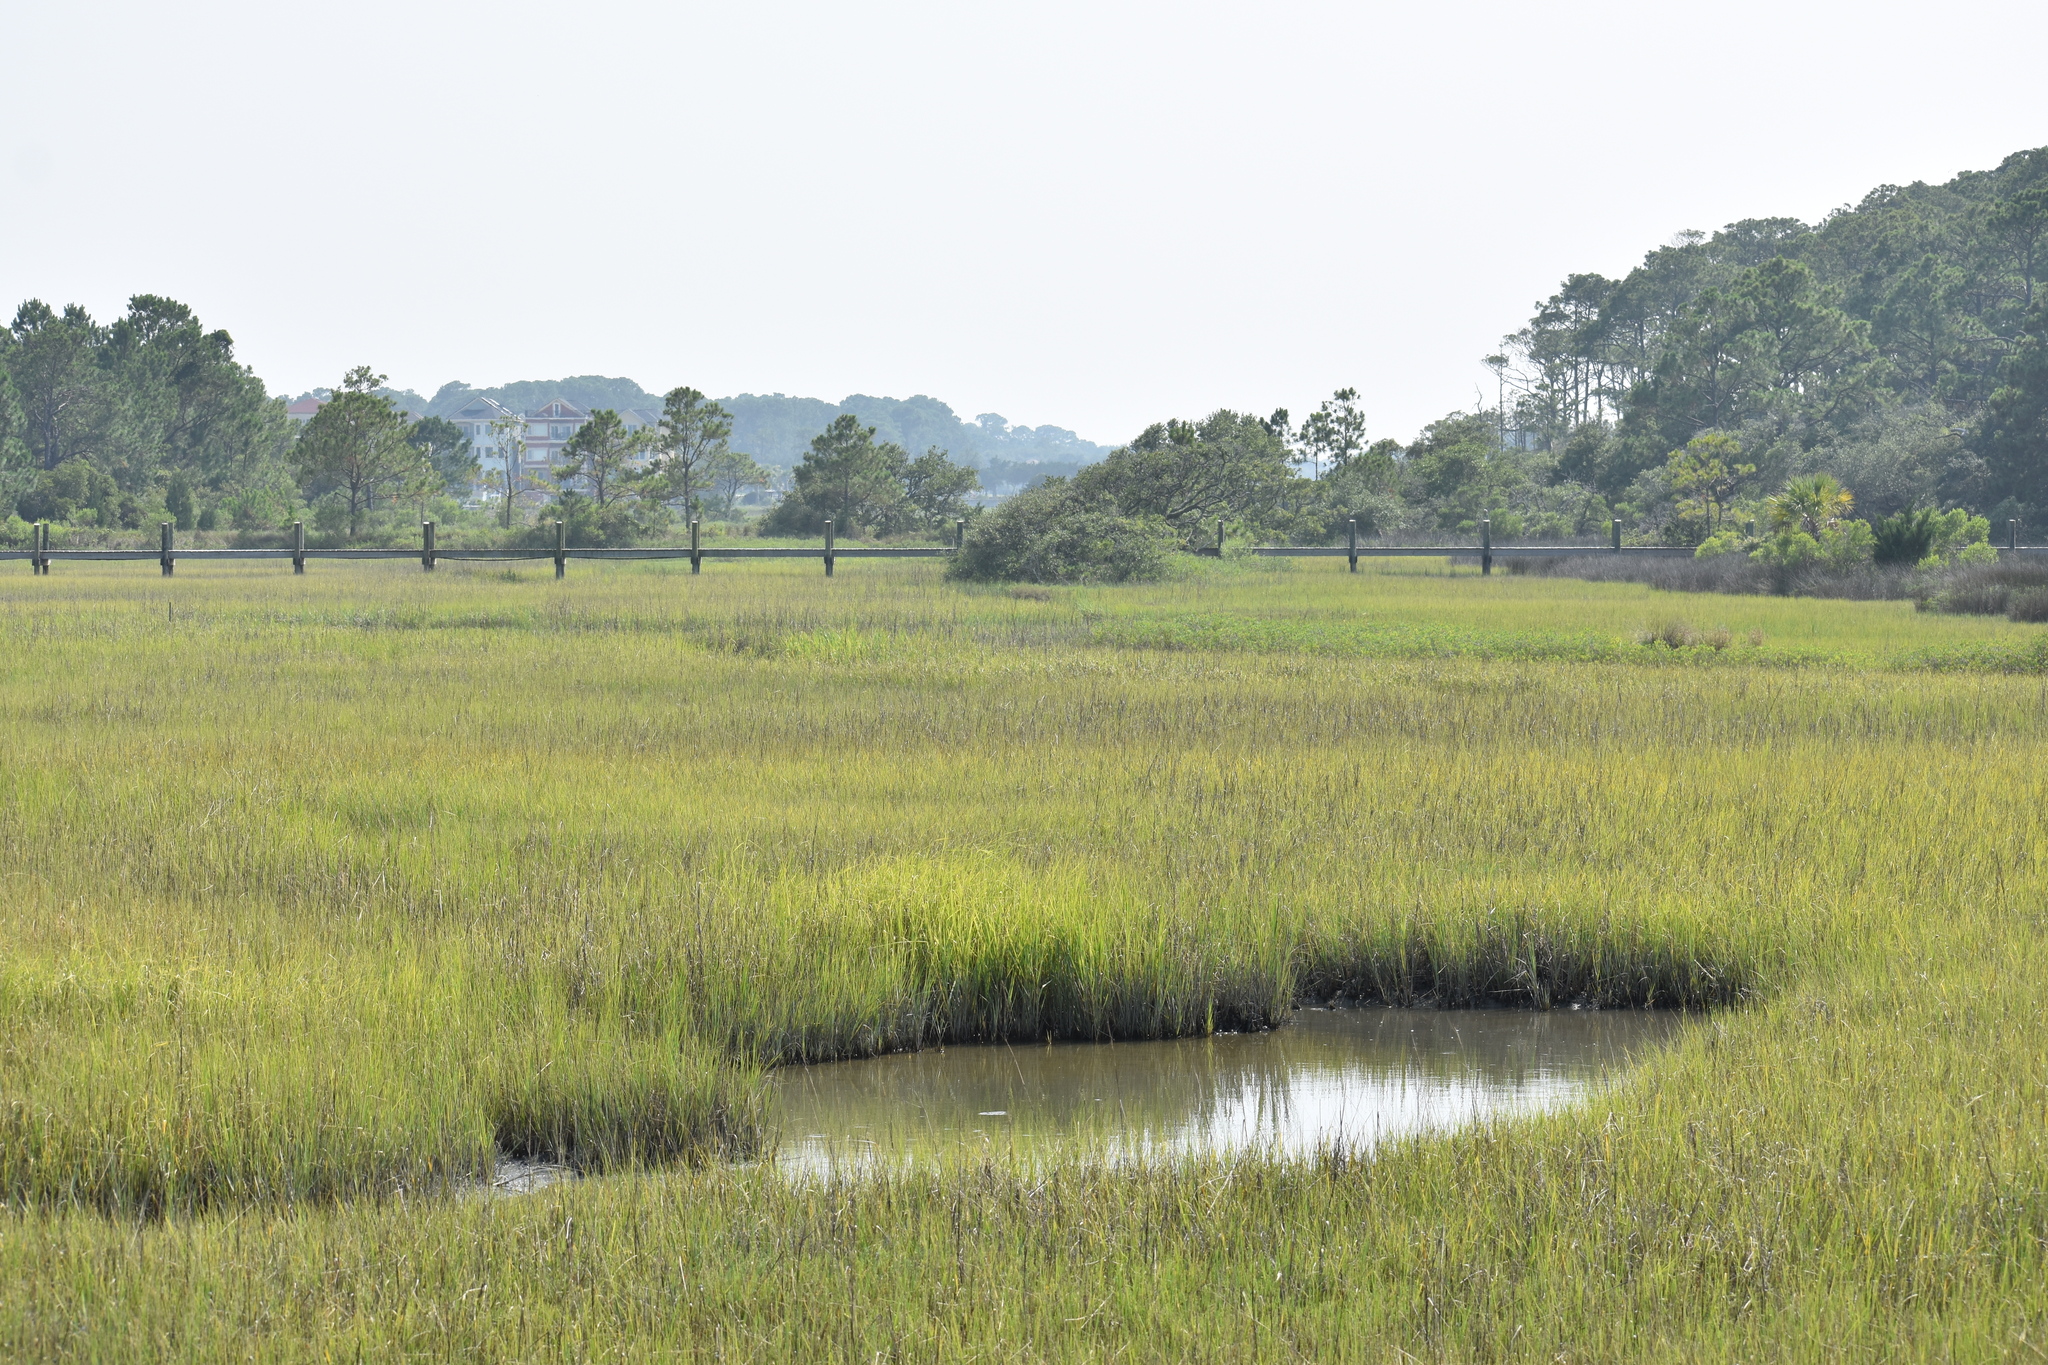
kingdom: Plantae
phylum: Tracheophyta
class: Liliopsida
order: Poales
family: Poaceae
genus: Sporobolus
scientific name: Sporobolus alterniflorus
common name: Atlantic cordgrass
